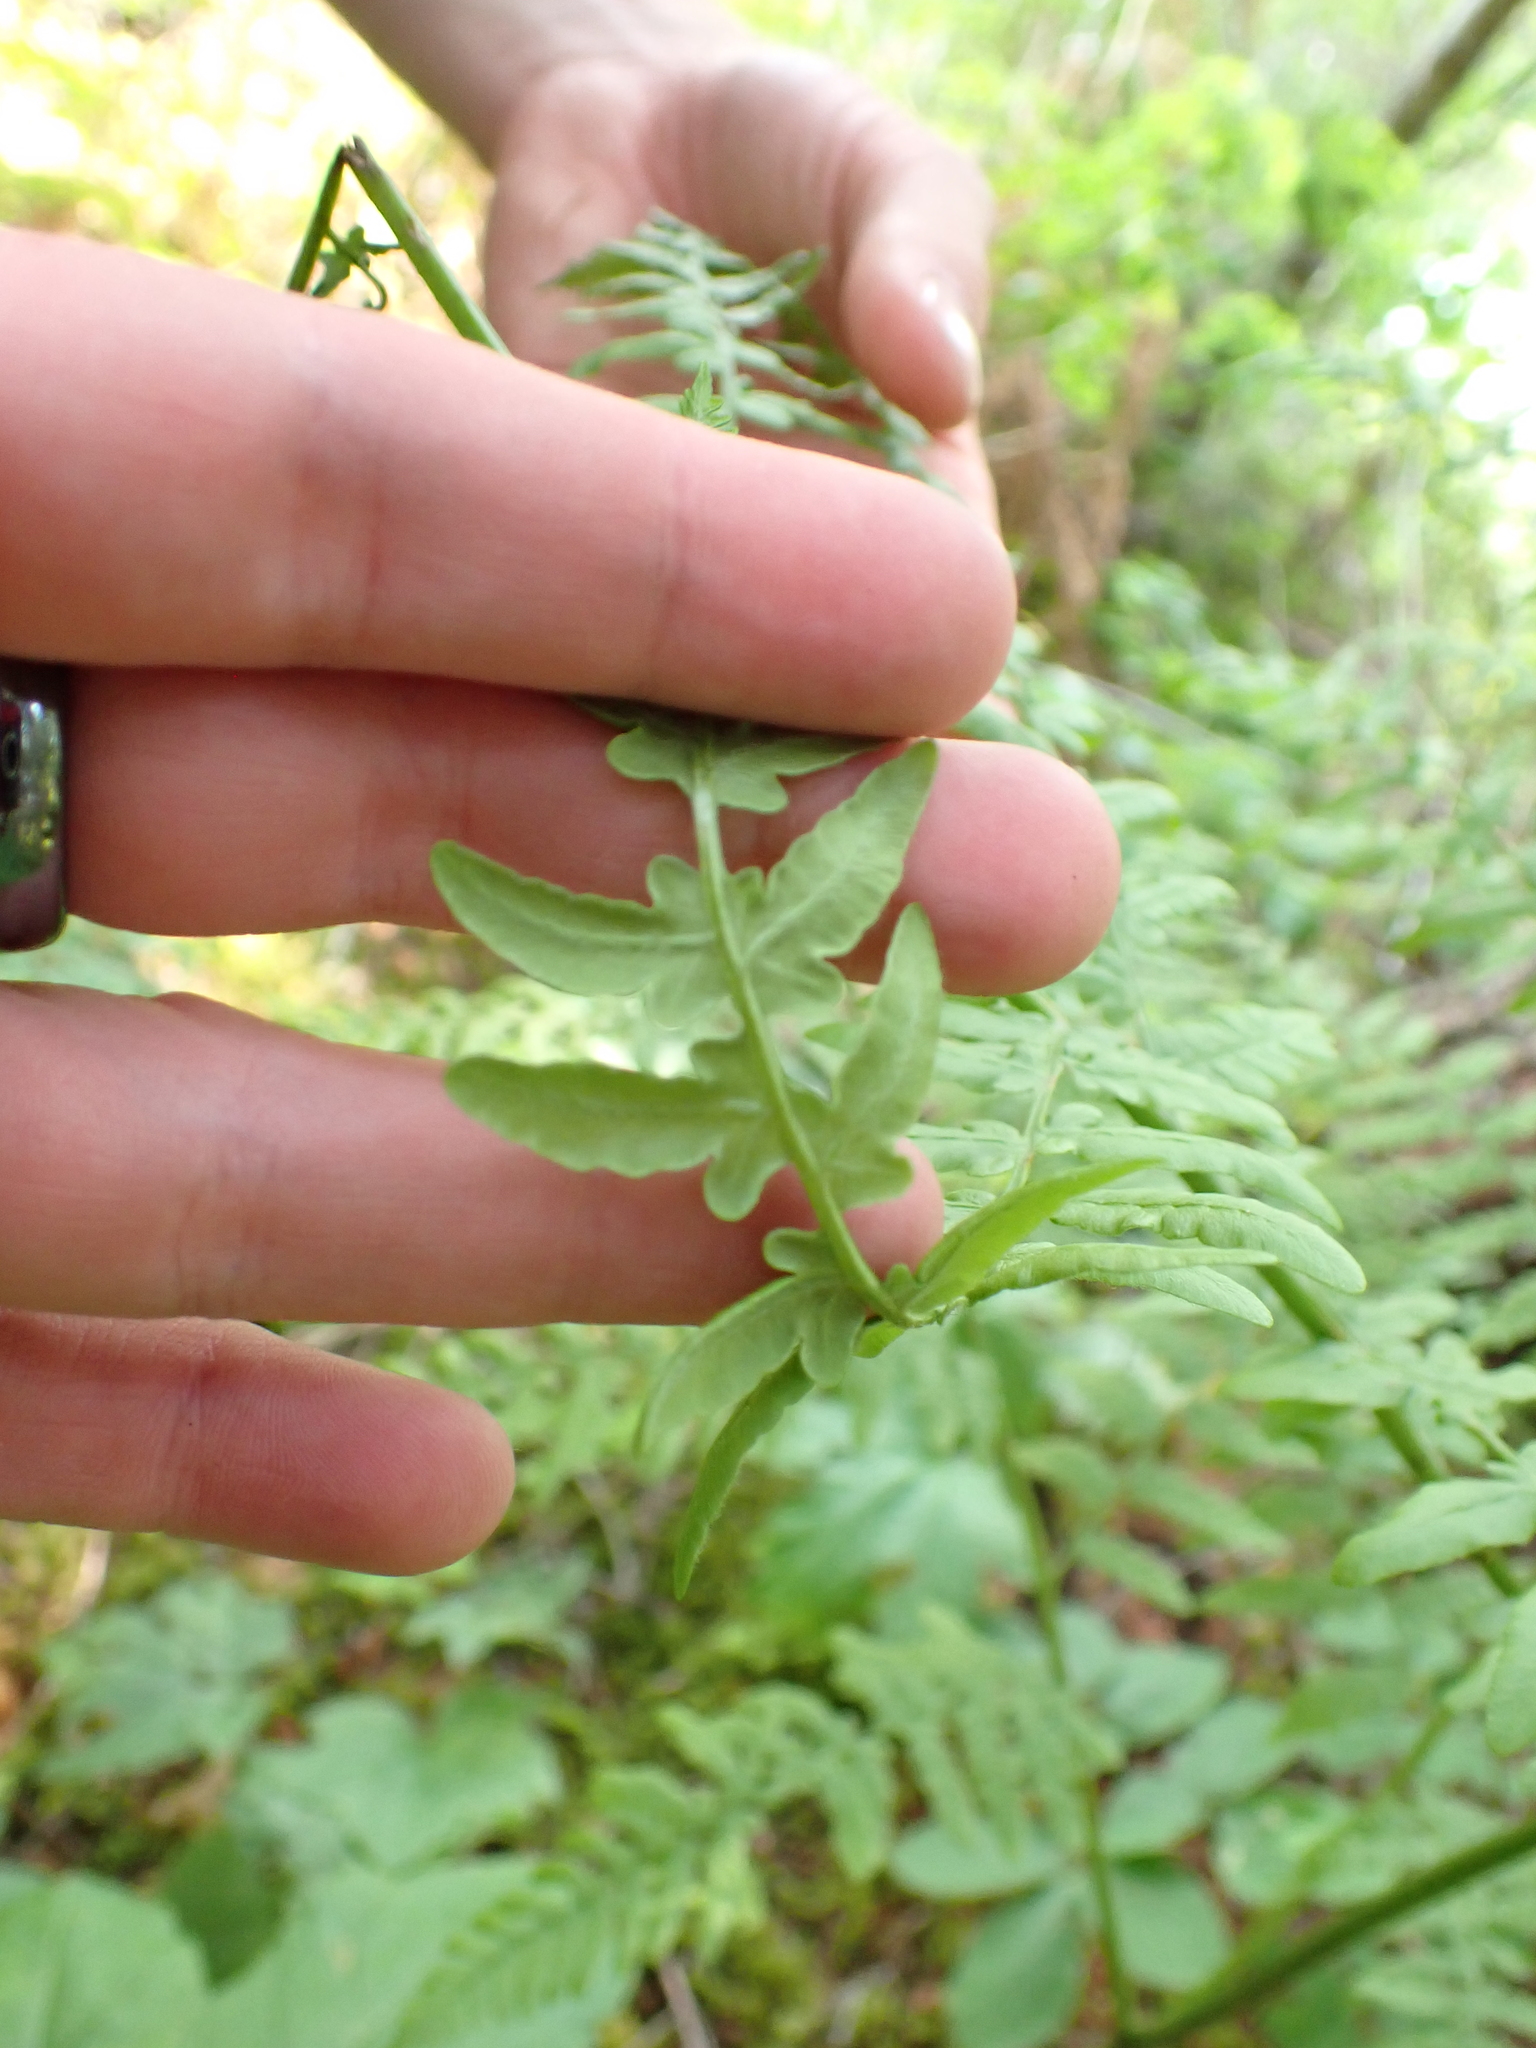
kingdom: Plantae
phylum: Tracheophyta
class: Polypodiopsida
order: Polypodiales
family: Dennstaedtiaceae
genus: Pteridium
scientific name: Pteridium aquilinum
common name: Bracken
